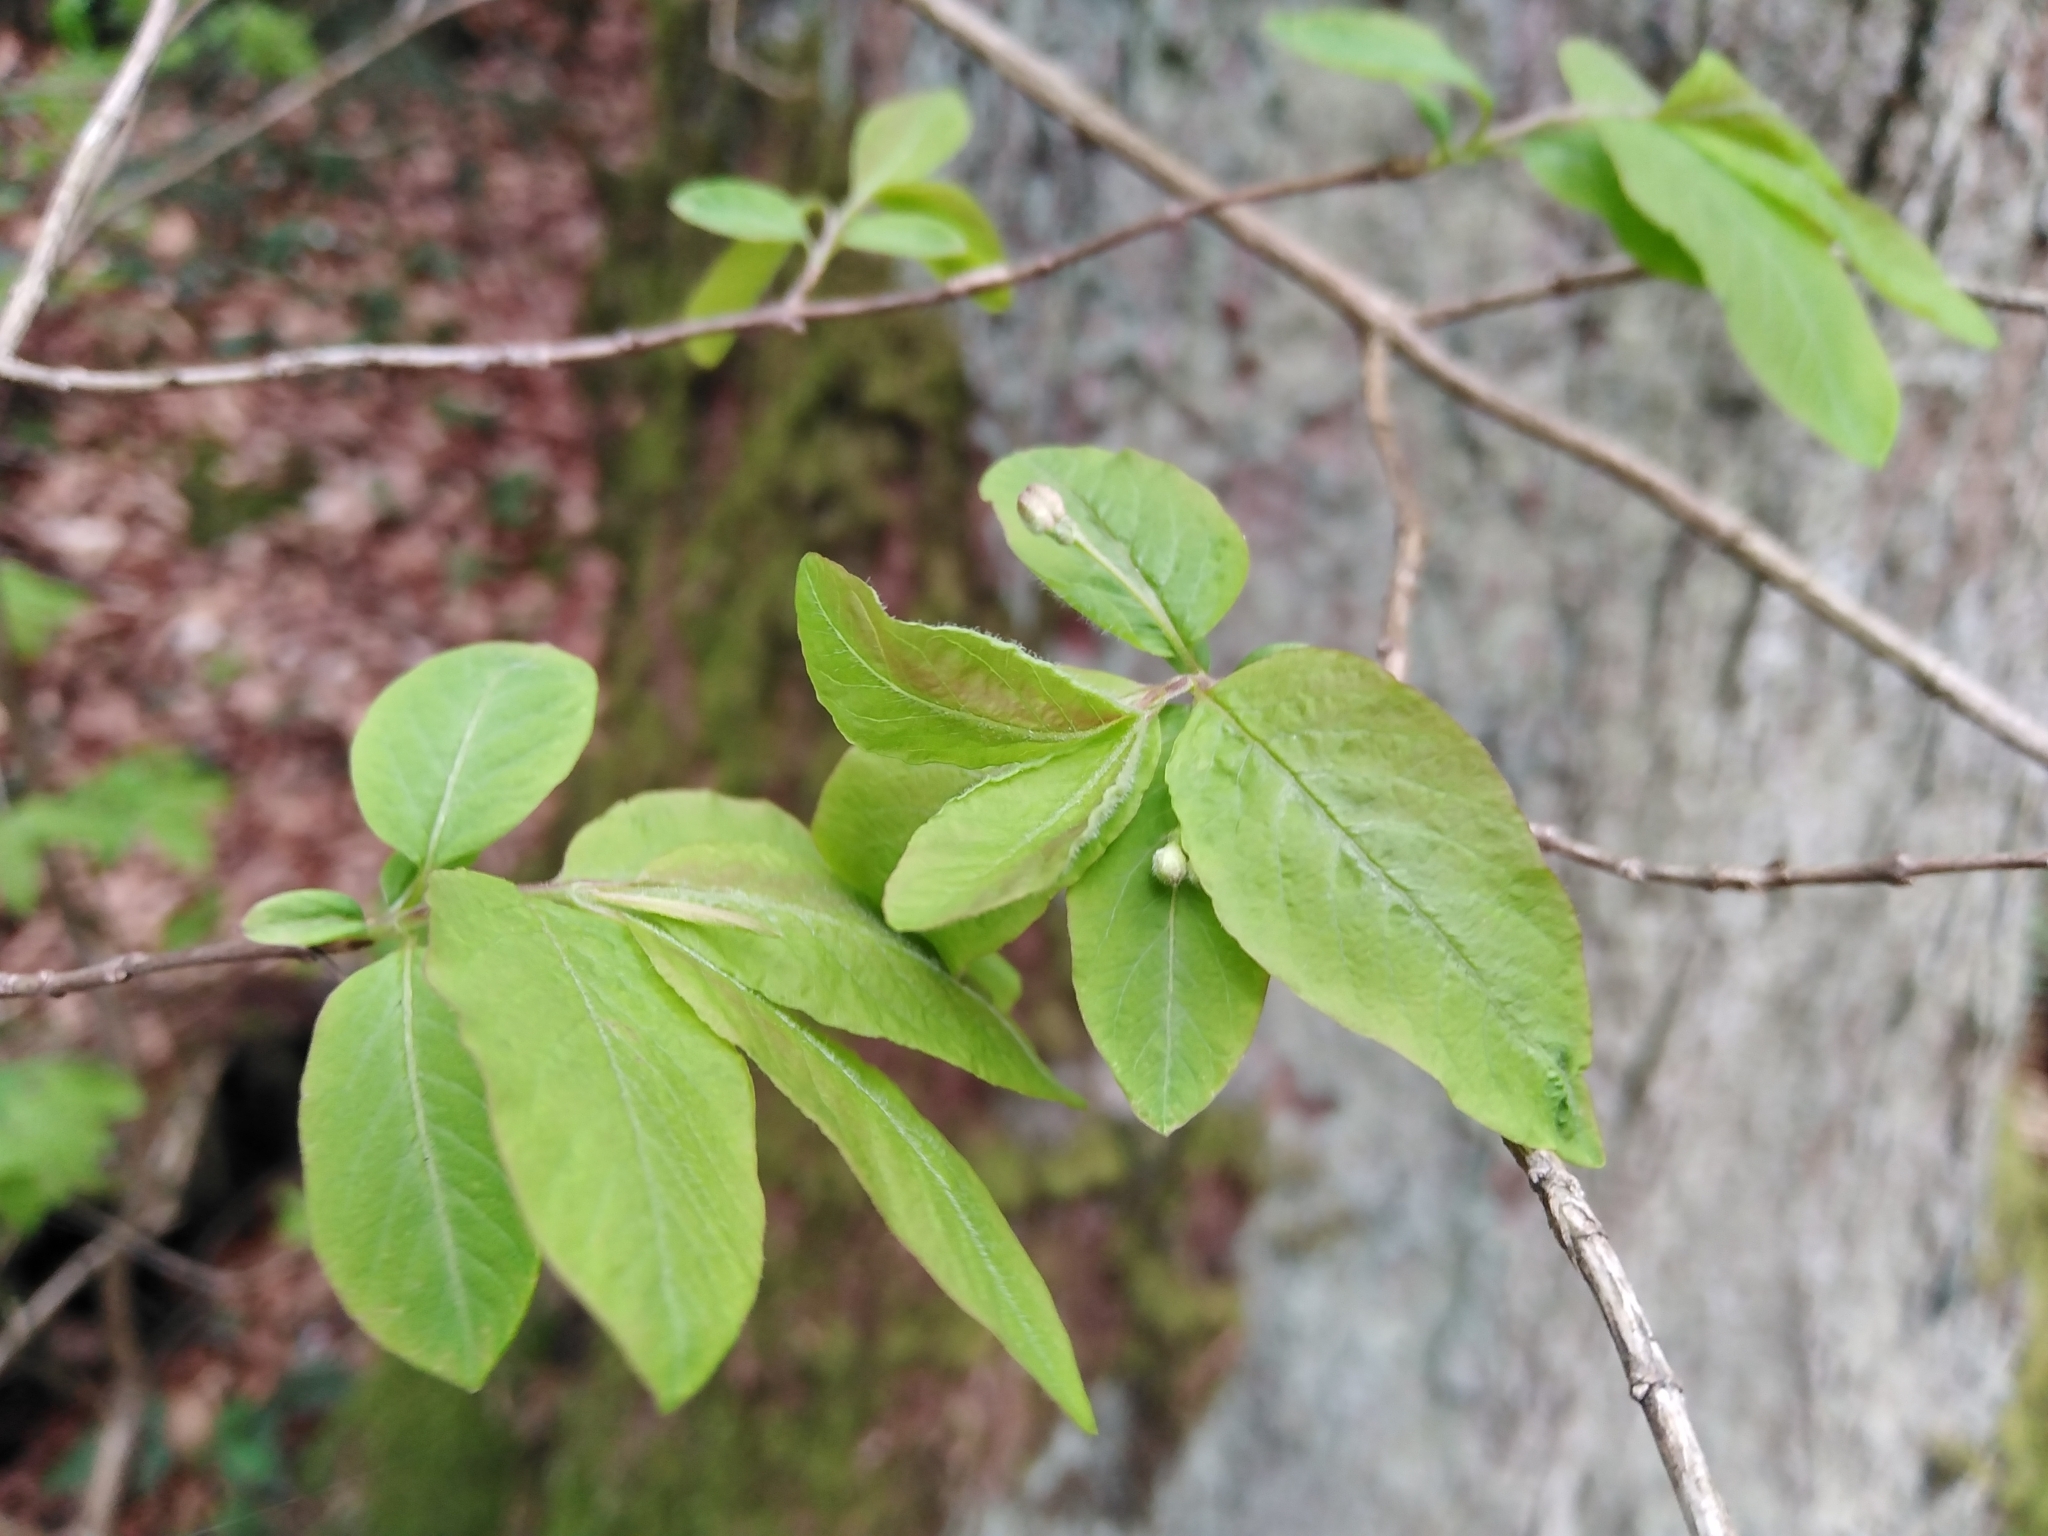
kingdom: Plantae
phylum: Tracheophyta
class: Magnoliopsida
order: Dipsacales
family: Caprifoliaceae
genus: Lonicera
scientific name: Lonicera nigra
